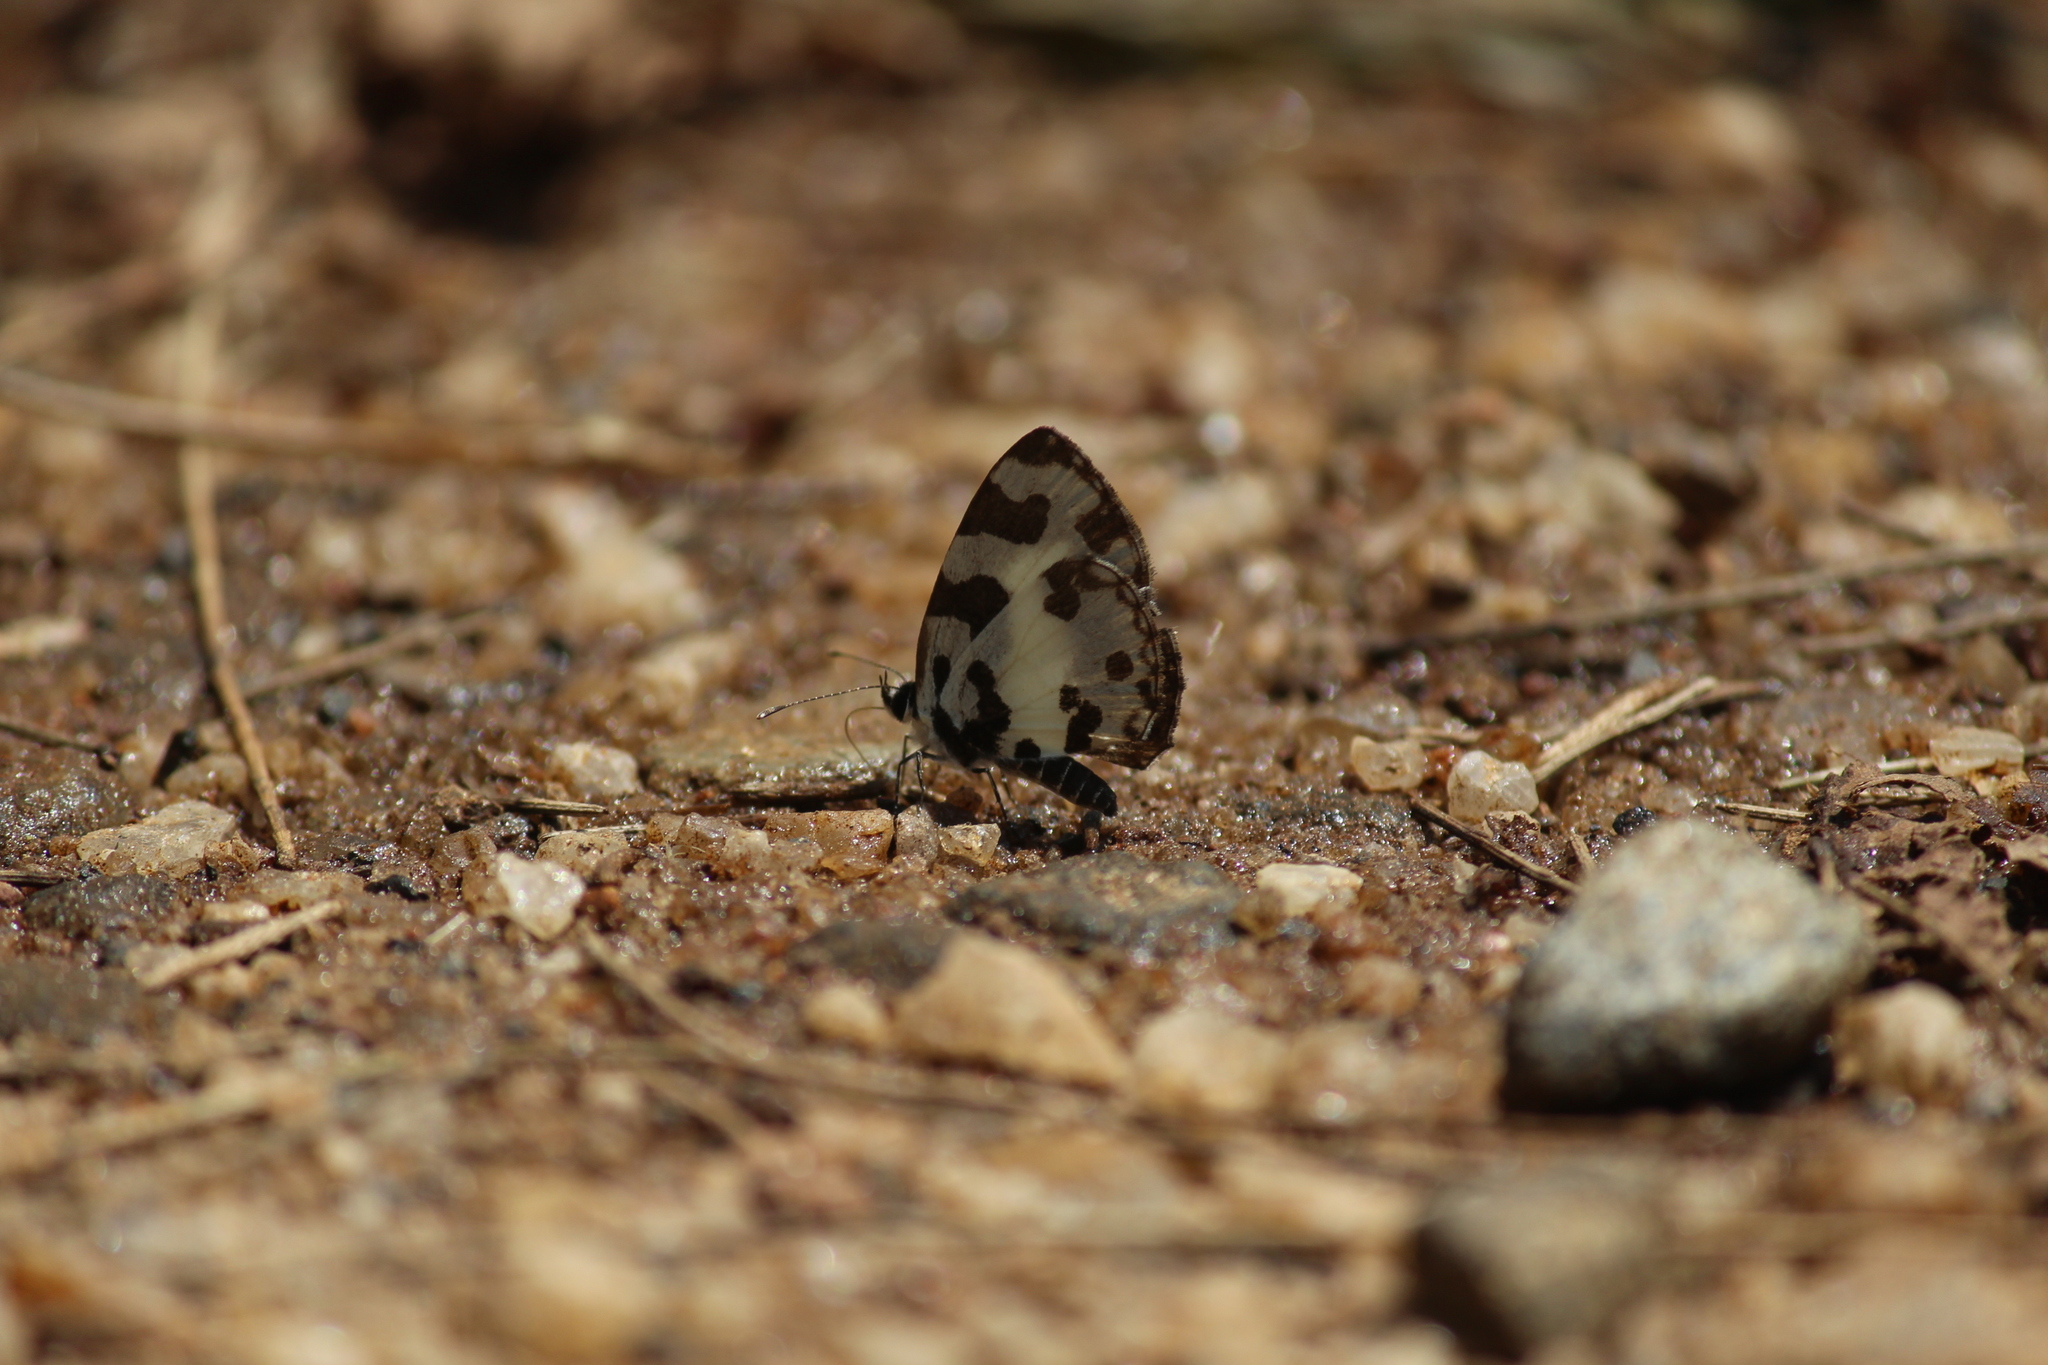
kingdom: Animalia
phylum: Arthropoda
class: Insecta
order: Lepidoptera
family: Lycaenidae
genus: Caleta
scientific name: Caleta decidia
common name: Angled pierrot
